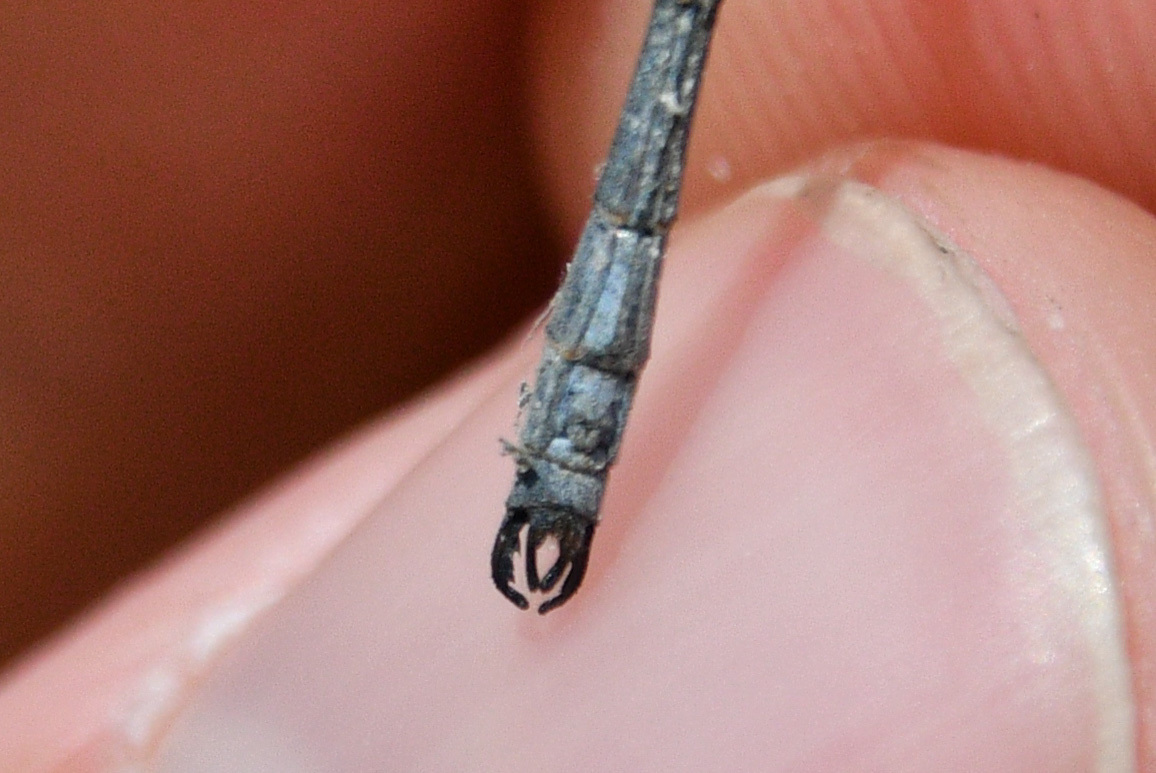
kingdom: Animalia
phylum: Arthropoda
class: Insecta
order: Odonata
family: Lestidae
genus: Lestes
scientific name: Lestes disjunctus
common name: Northern spreadwing
